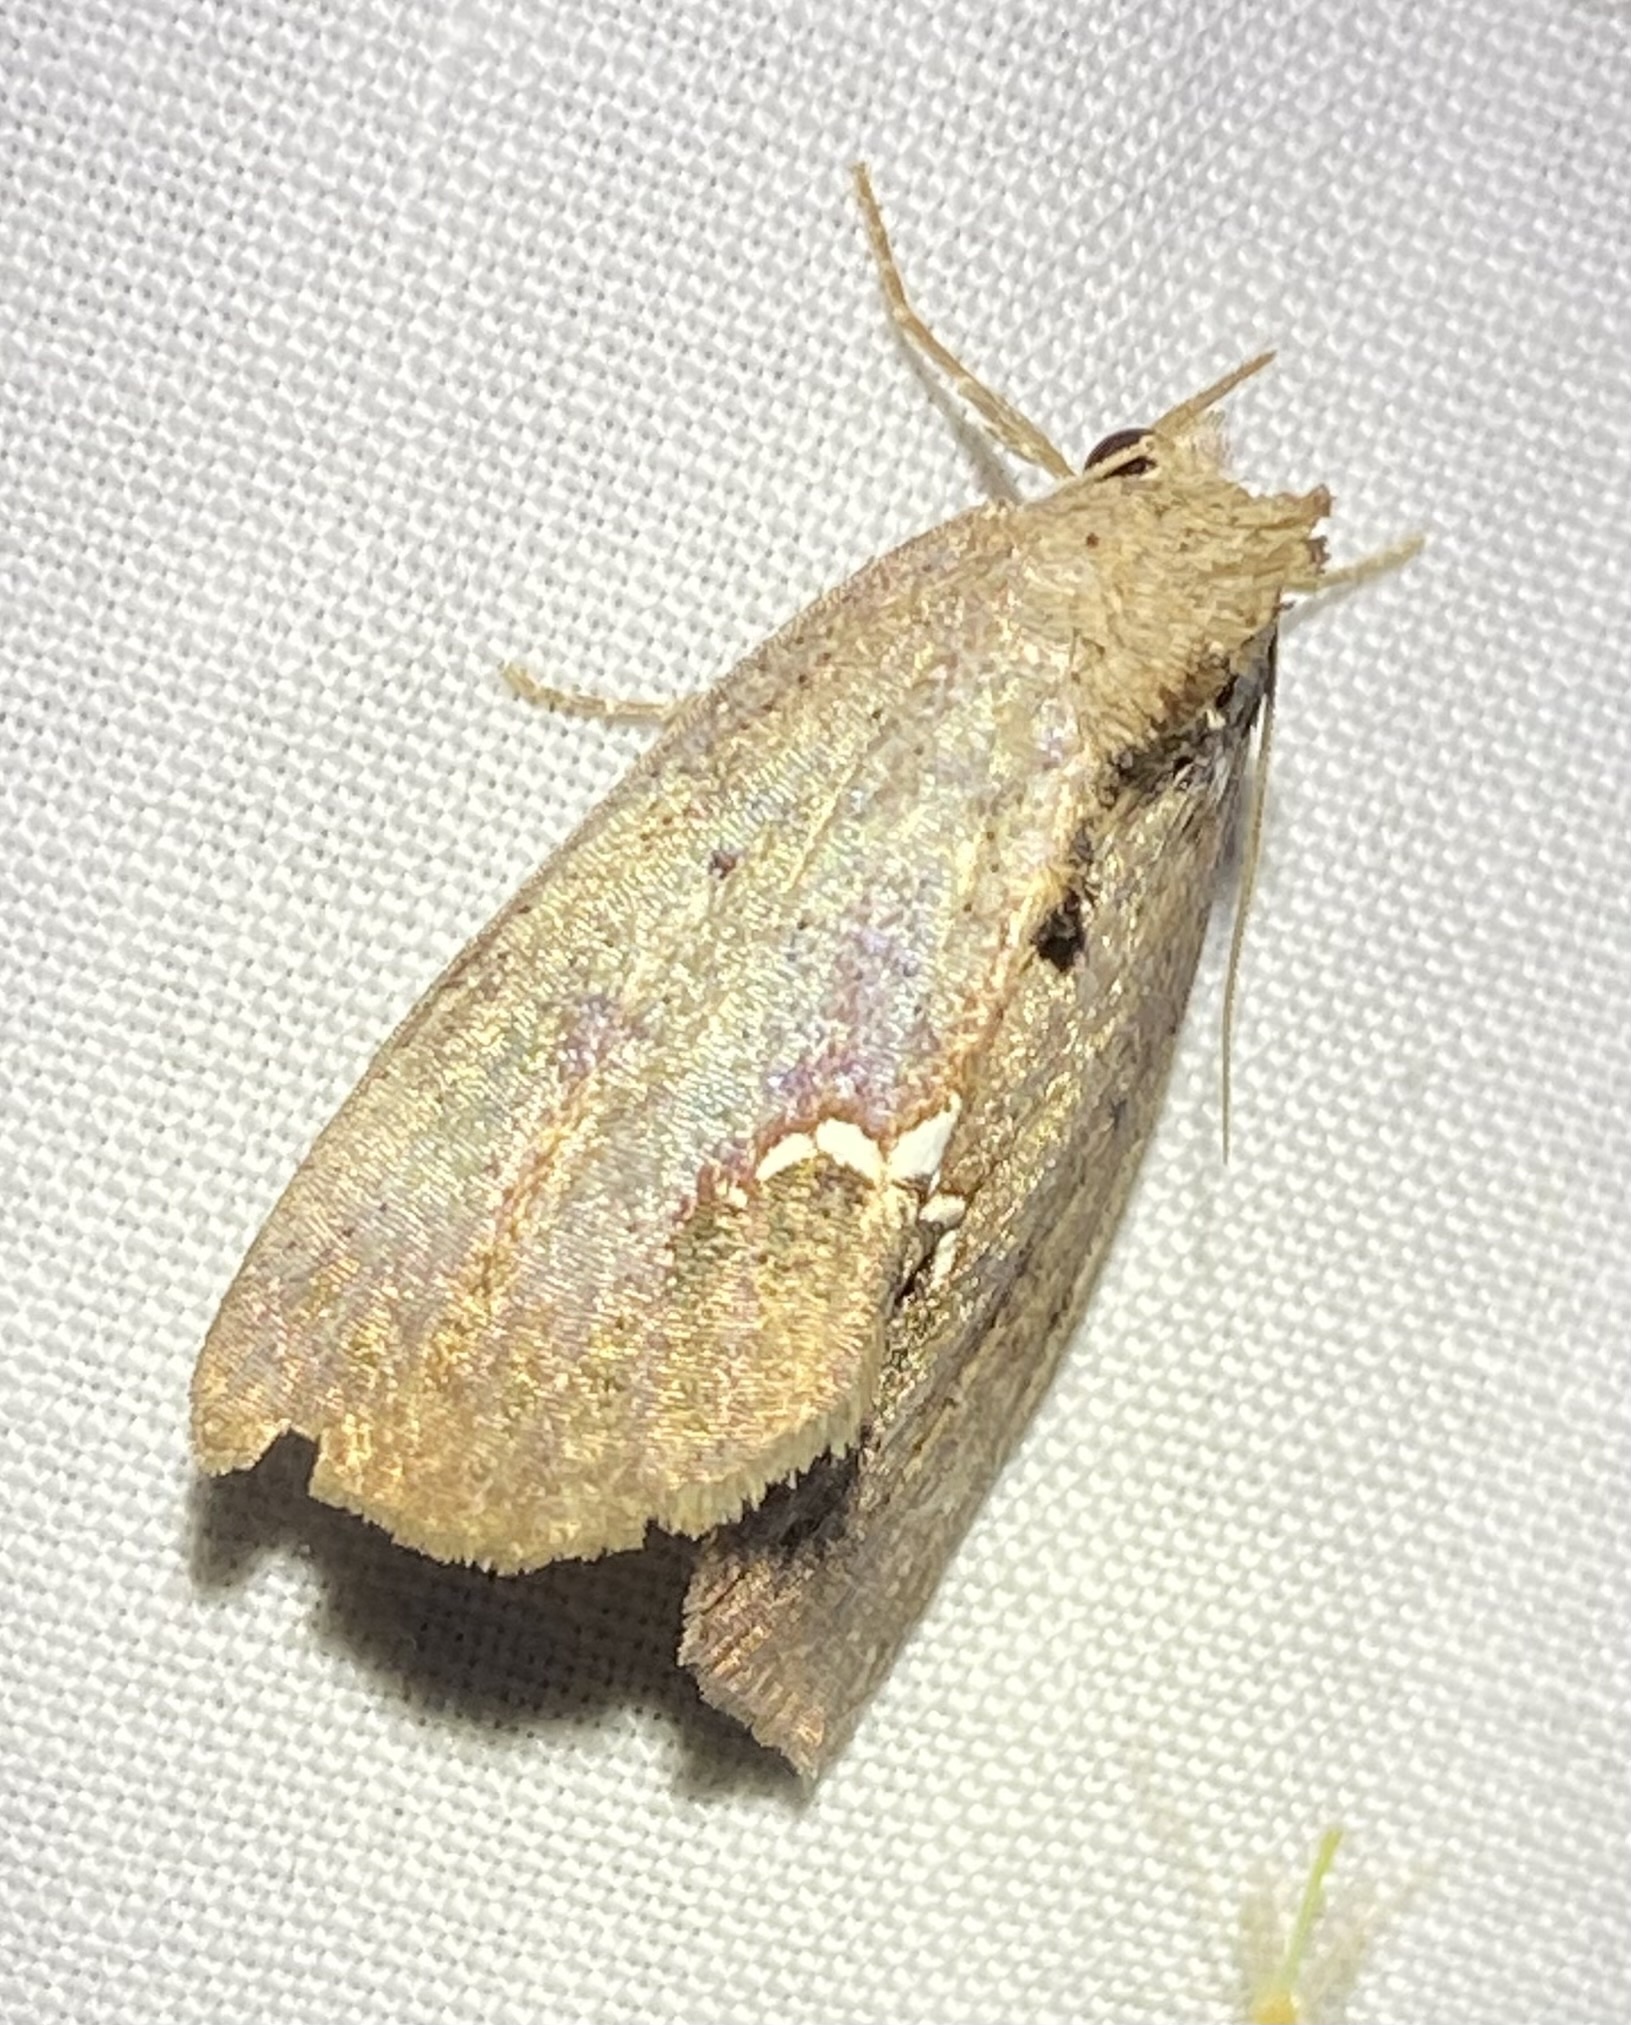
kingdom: Animalia
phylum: Arthropoda
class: Insecta
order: Lepidoptera
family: Erebidae
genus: Hypsoropha
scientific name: Hypsoropha hormos
